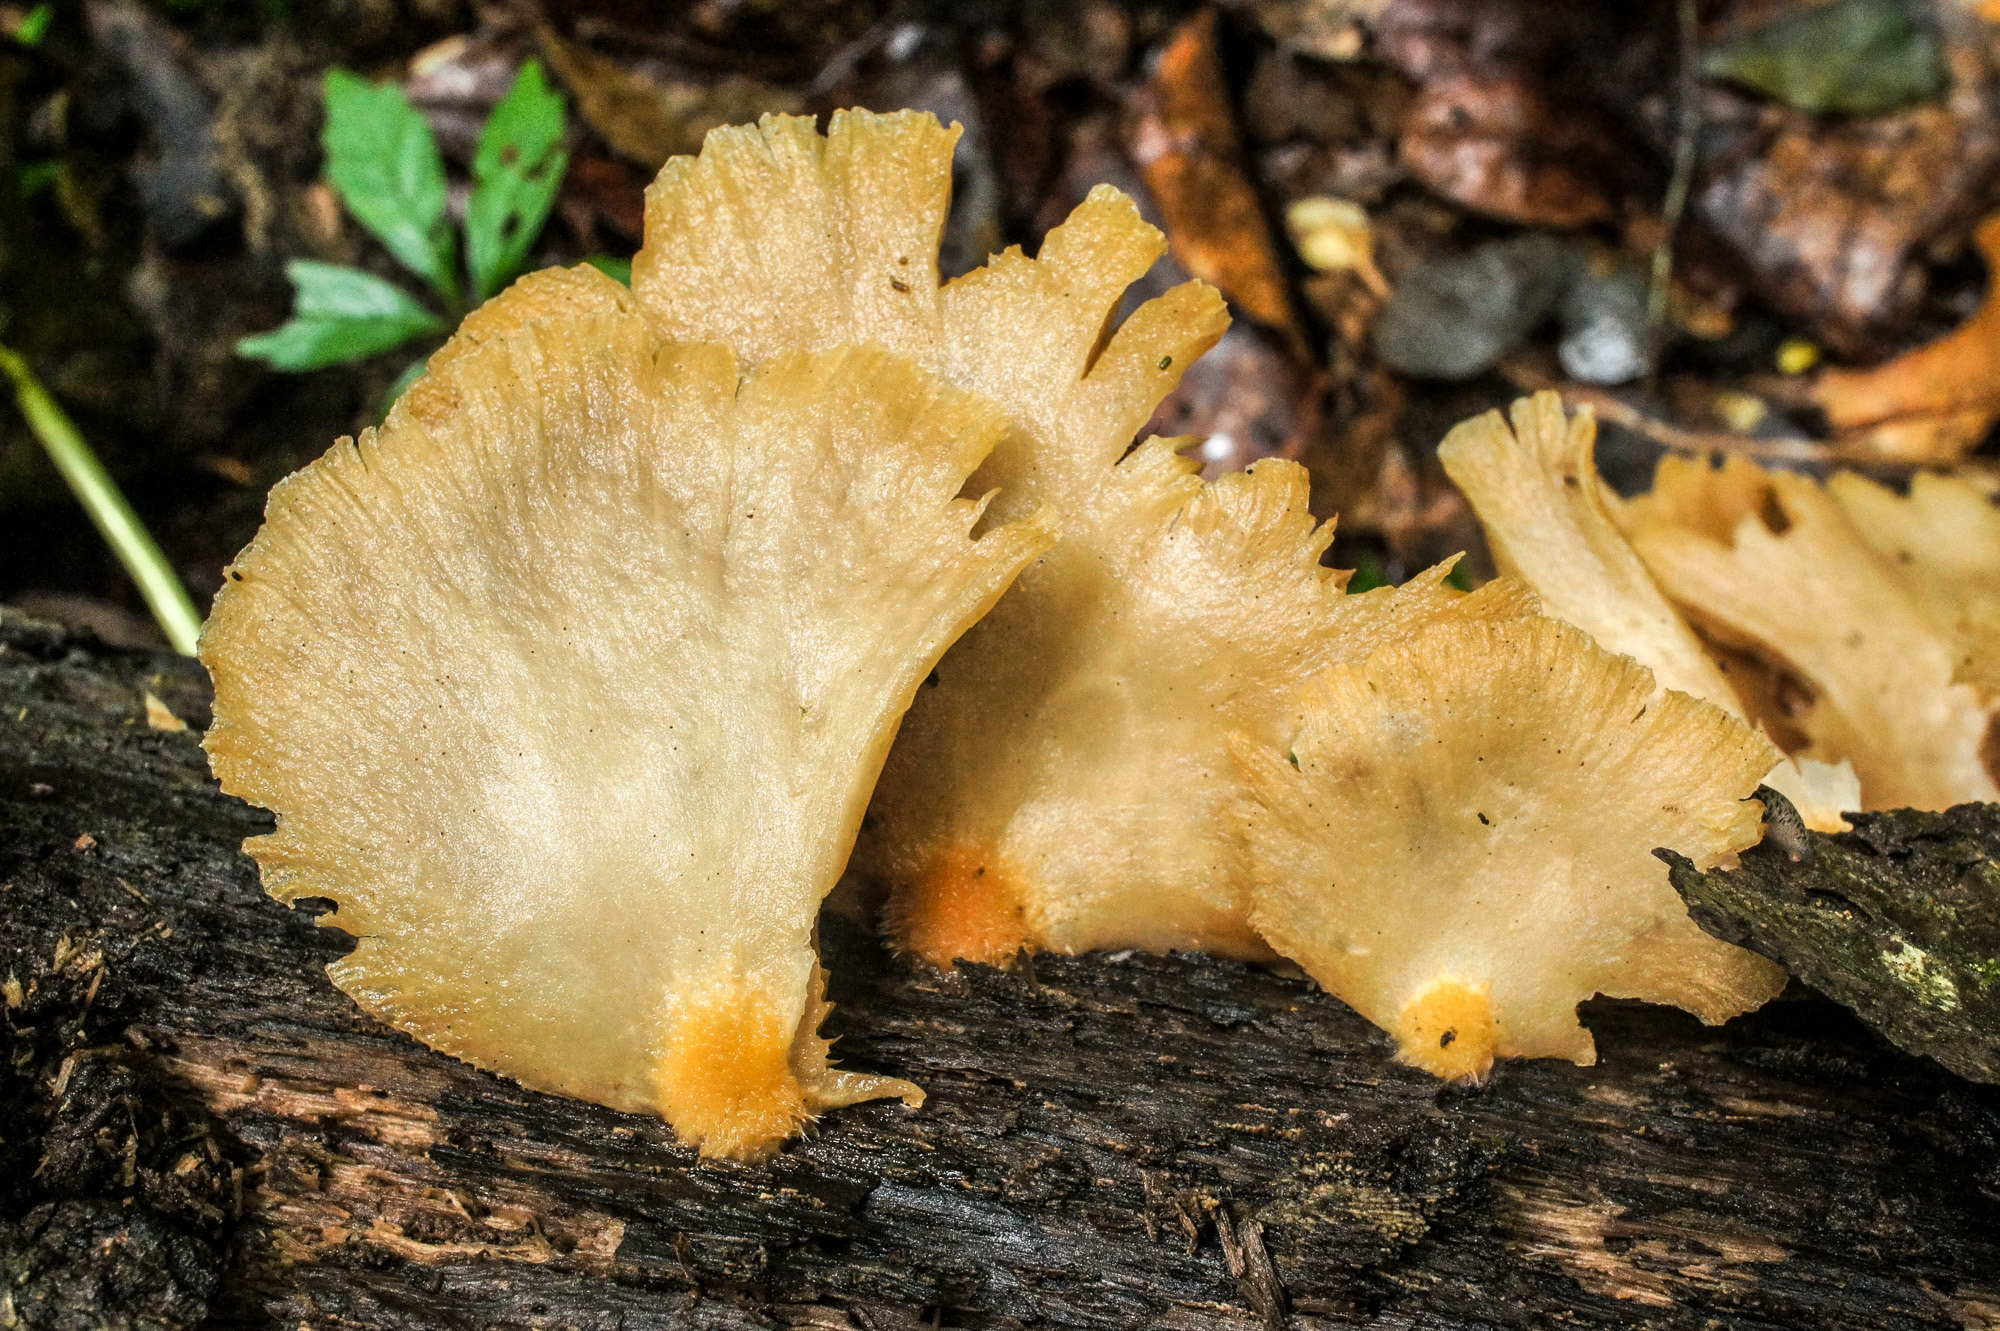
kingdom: Fungi
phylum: Basidiomycota
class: Agaricomycetes
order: Agaricales
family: Phyllotopsidaceae
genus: Phyllotopsis
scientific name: Phyllotopsis nidulans
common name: Orange mock oyster
